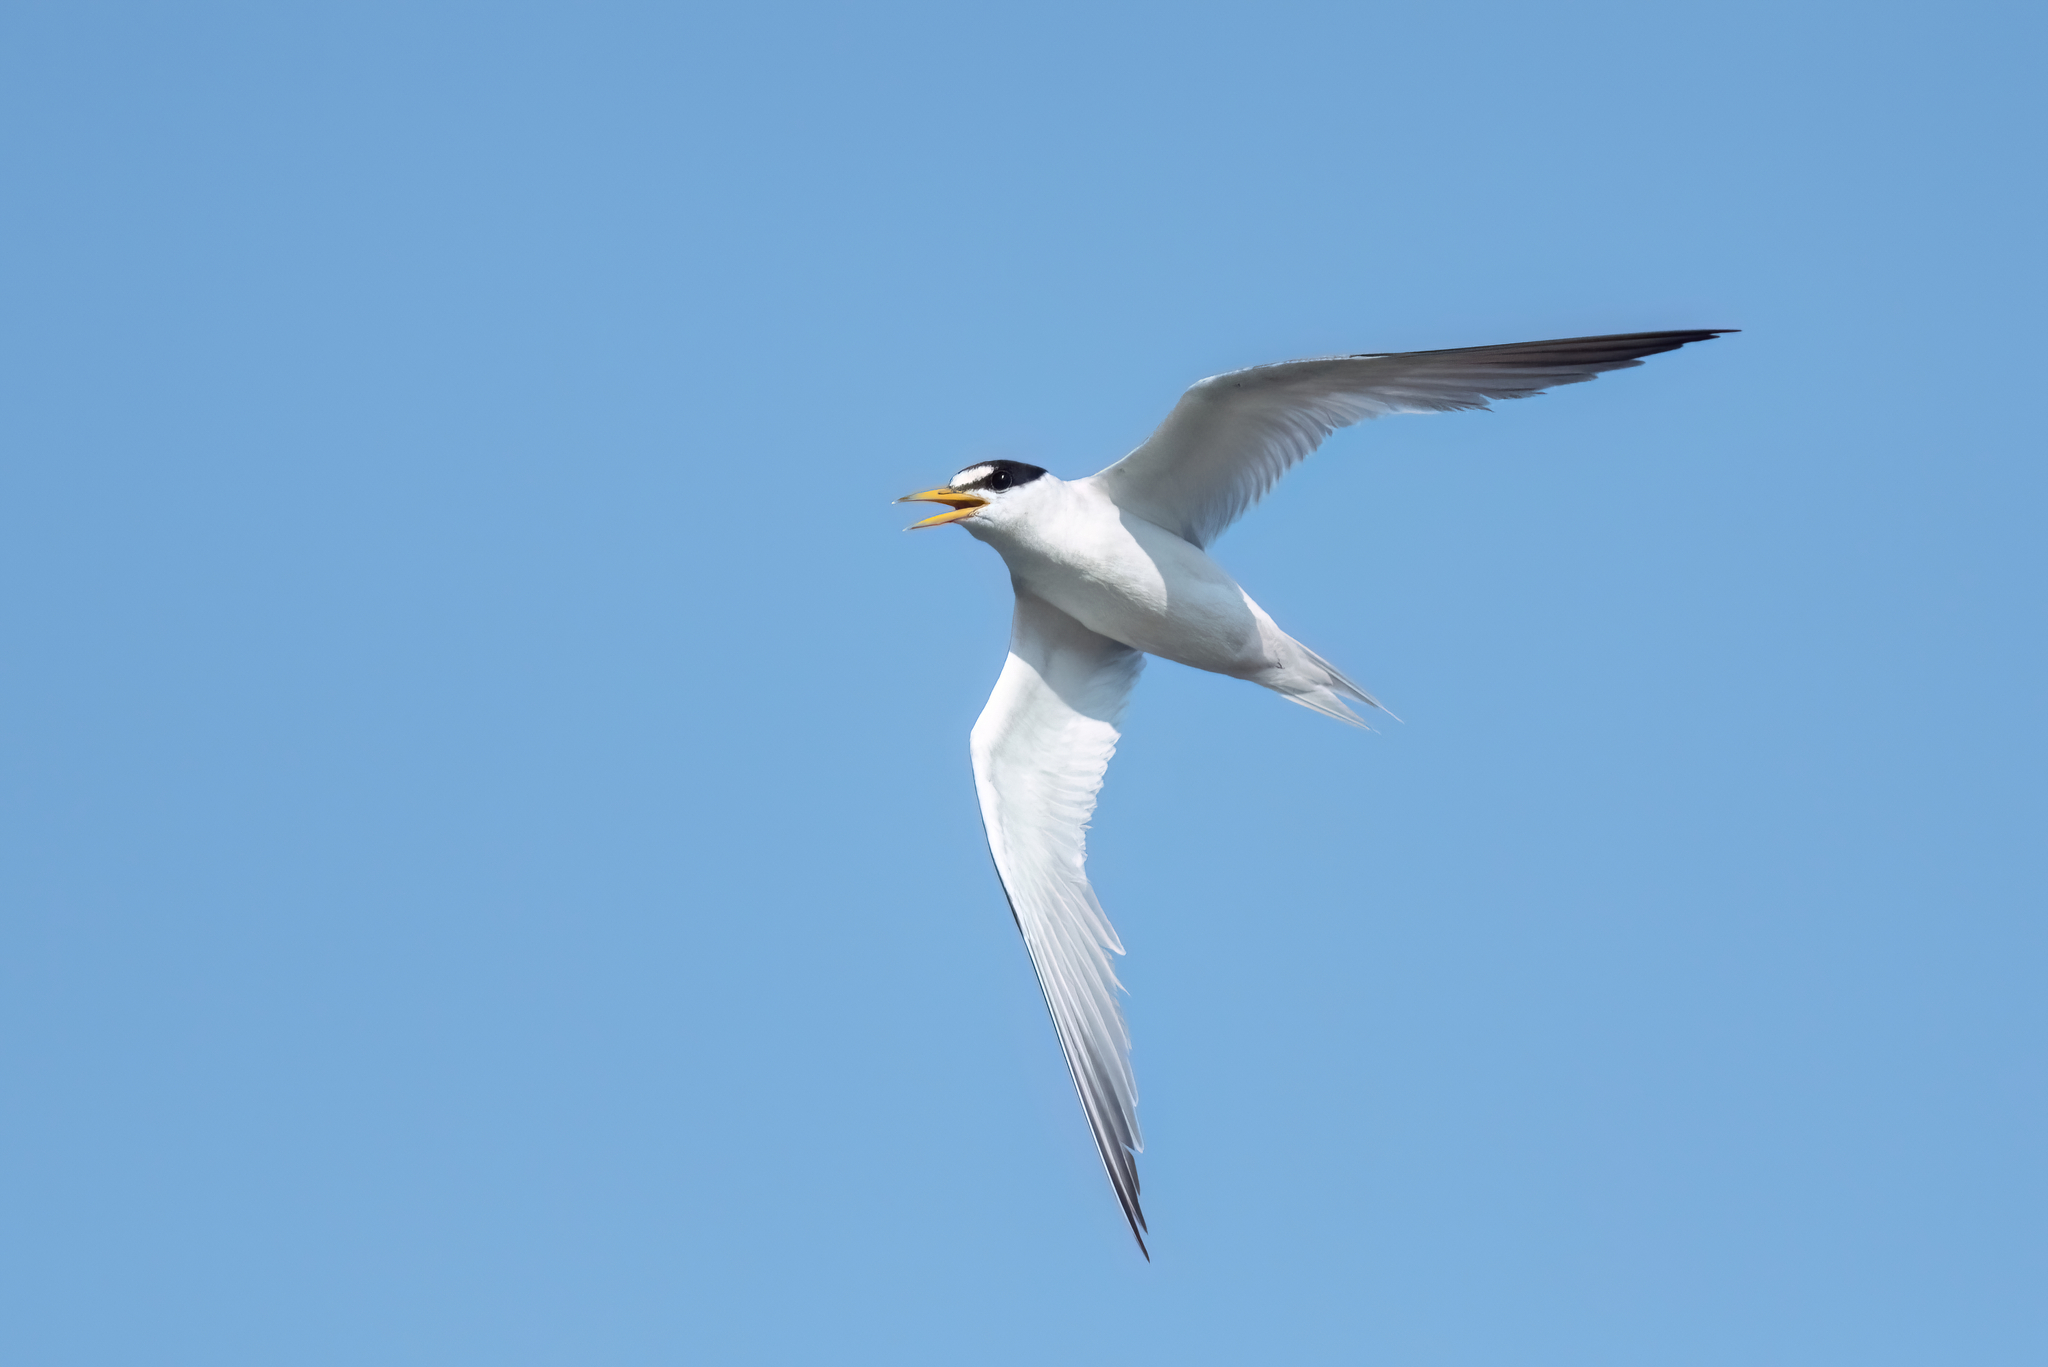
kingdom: Animalia
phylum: Chordata
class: Aves
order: Charadriiformes
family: Laridae
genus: Sternula
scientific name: Sternula antillarum
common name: Least tern
